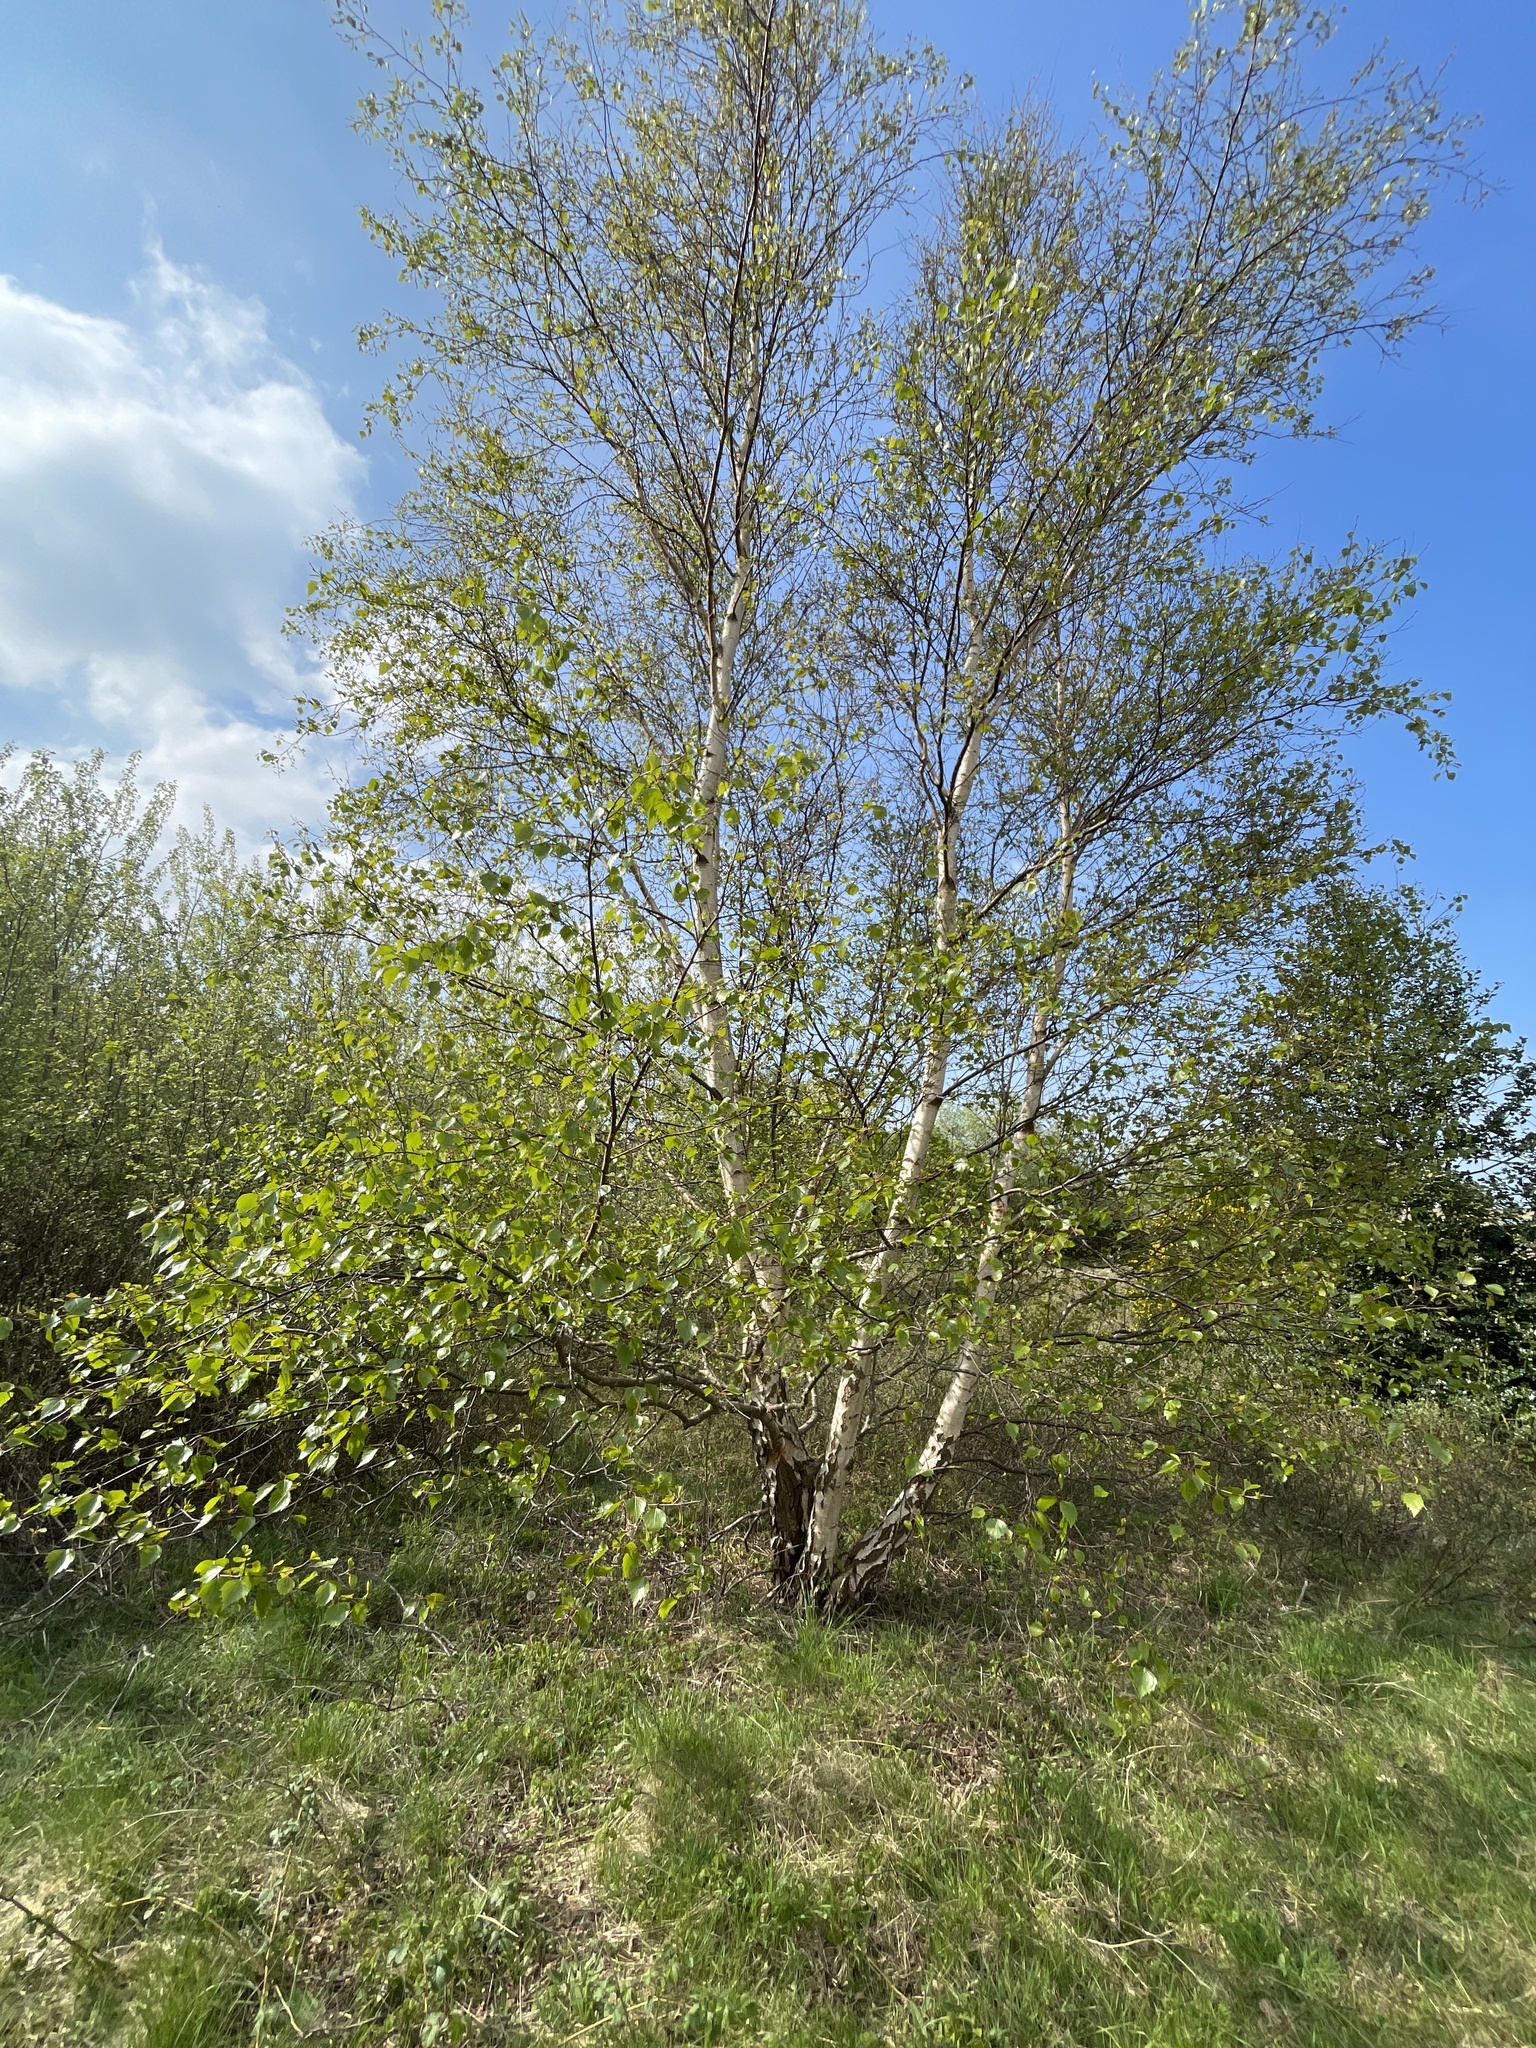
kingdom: Plantae
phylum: Tracheophyta
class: Magnoliopsida
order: Fagales
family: Betulaceae
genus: Betula
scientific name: Betula pubescens
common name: Downy birch
